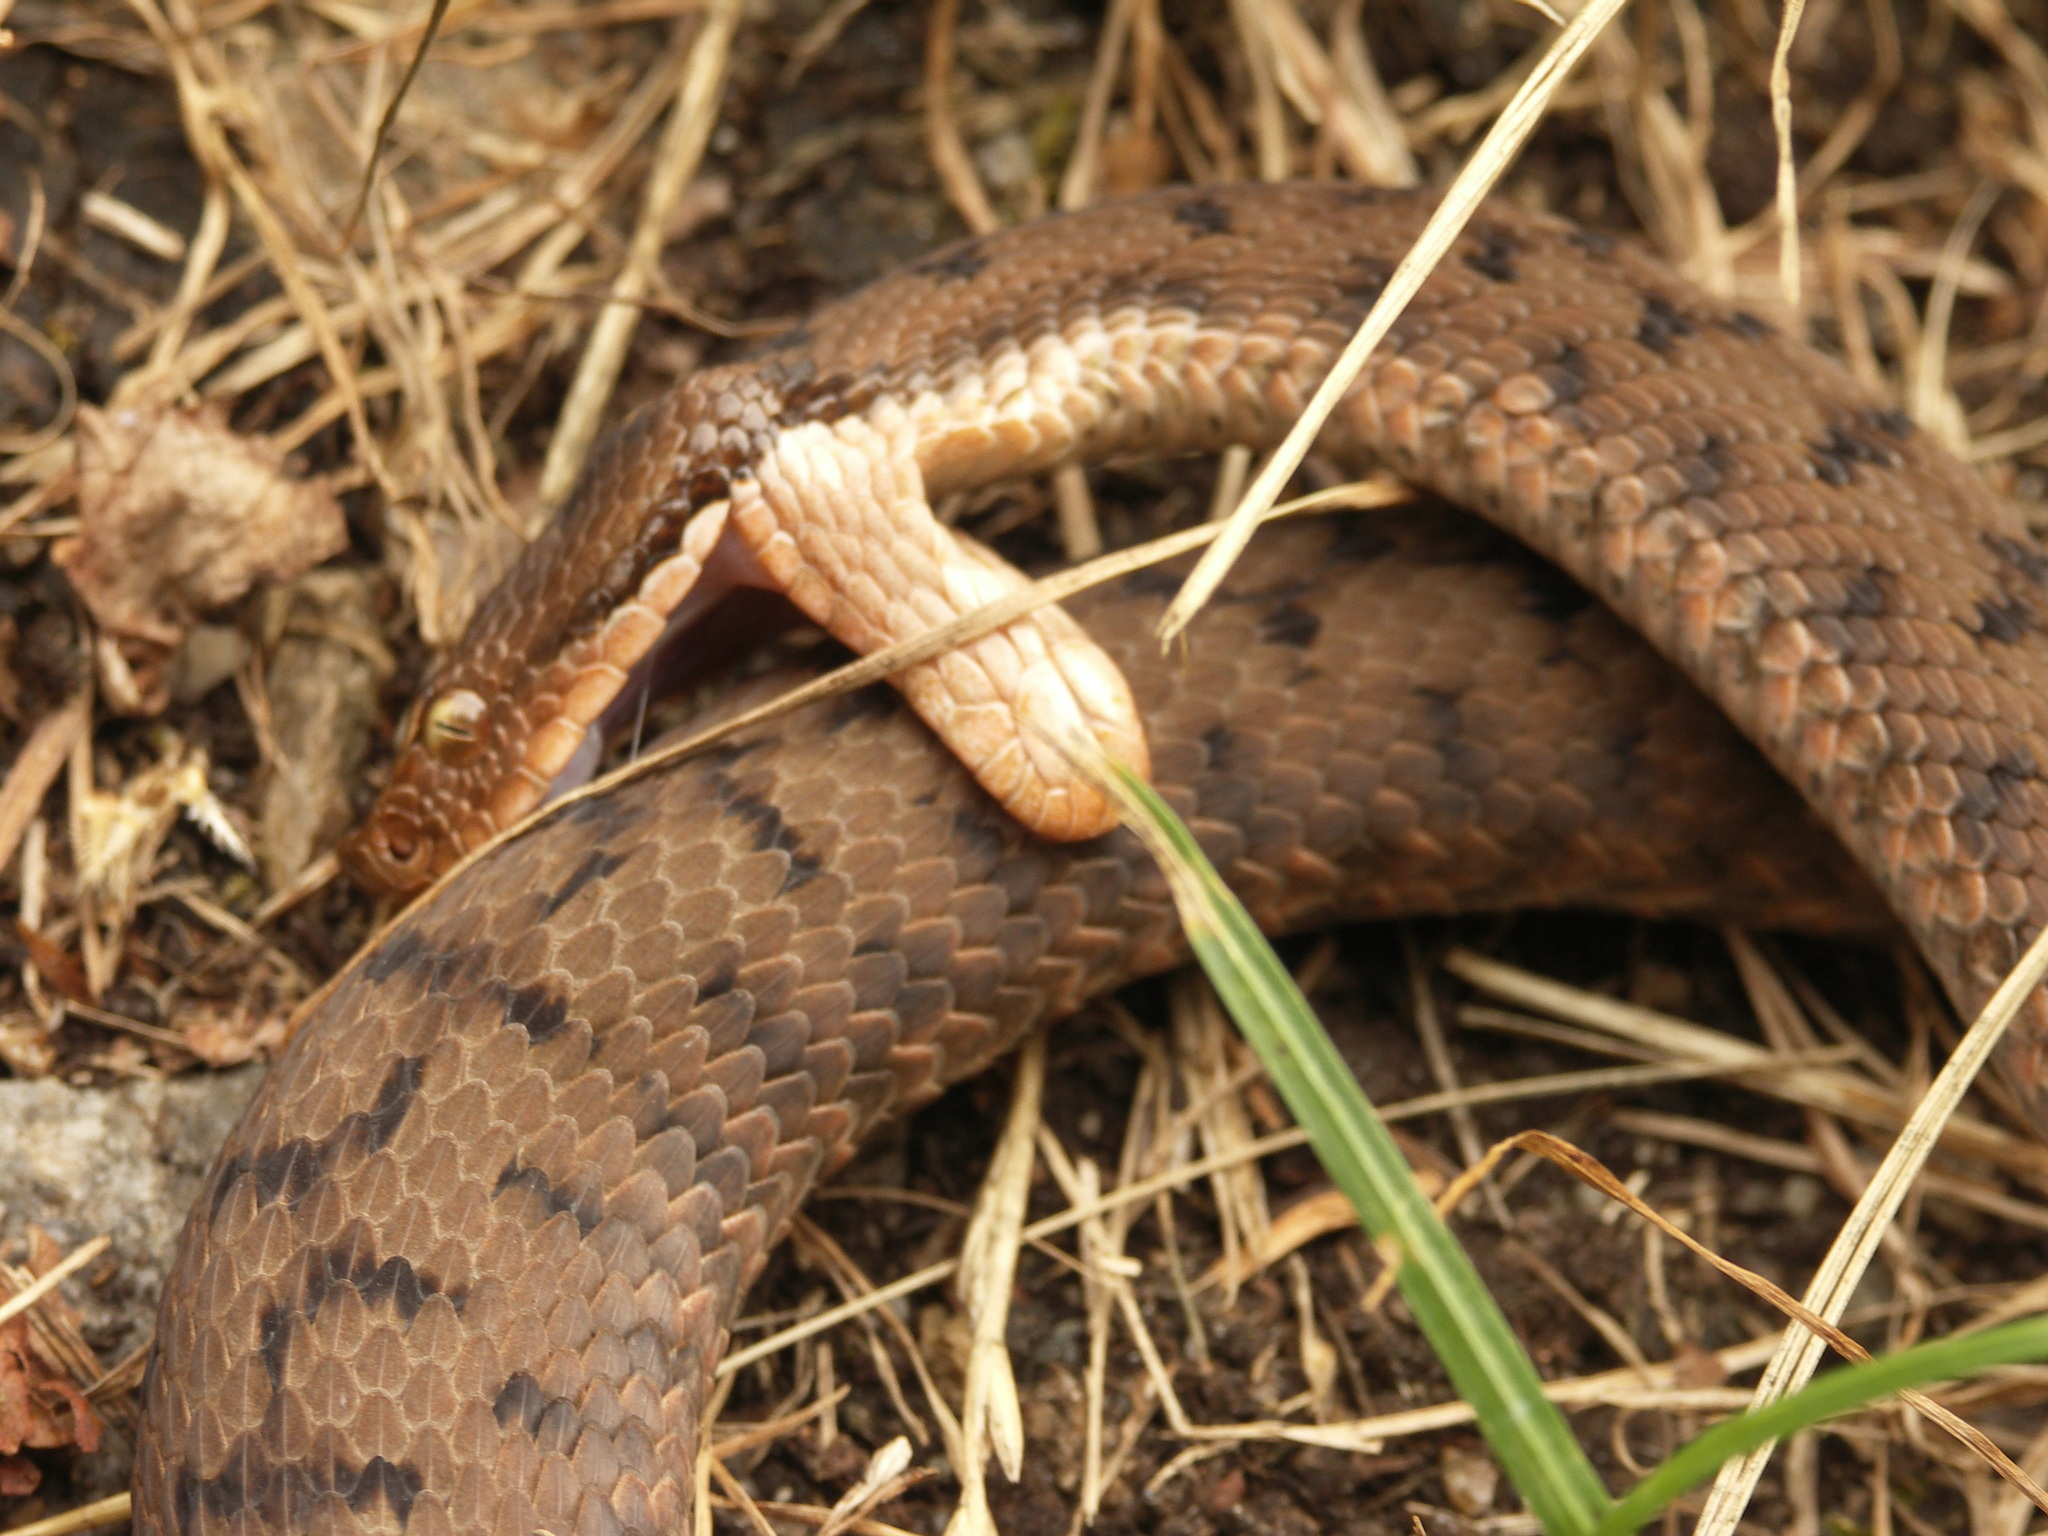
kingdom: Animalia
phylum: Chordata
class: Squamata
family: Viperidae
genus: Vipera
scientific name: Vipera aspis
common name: Asp viper
